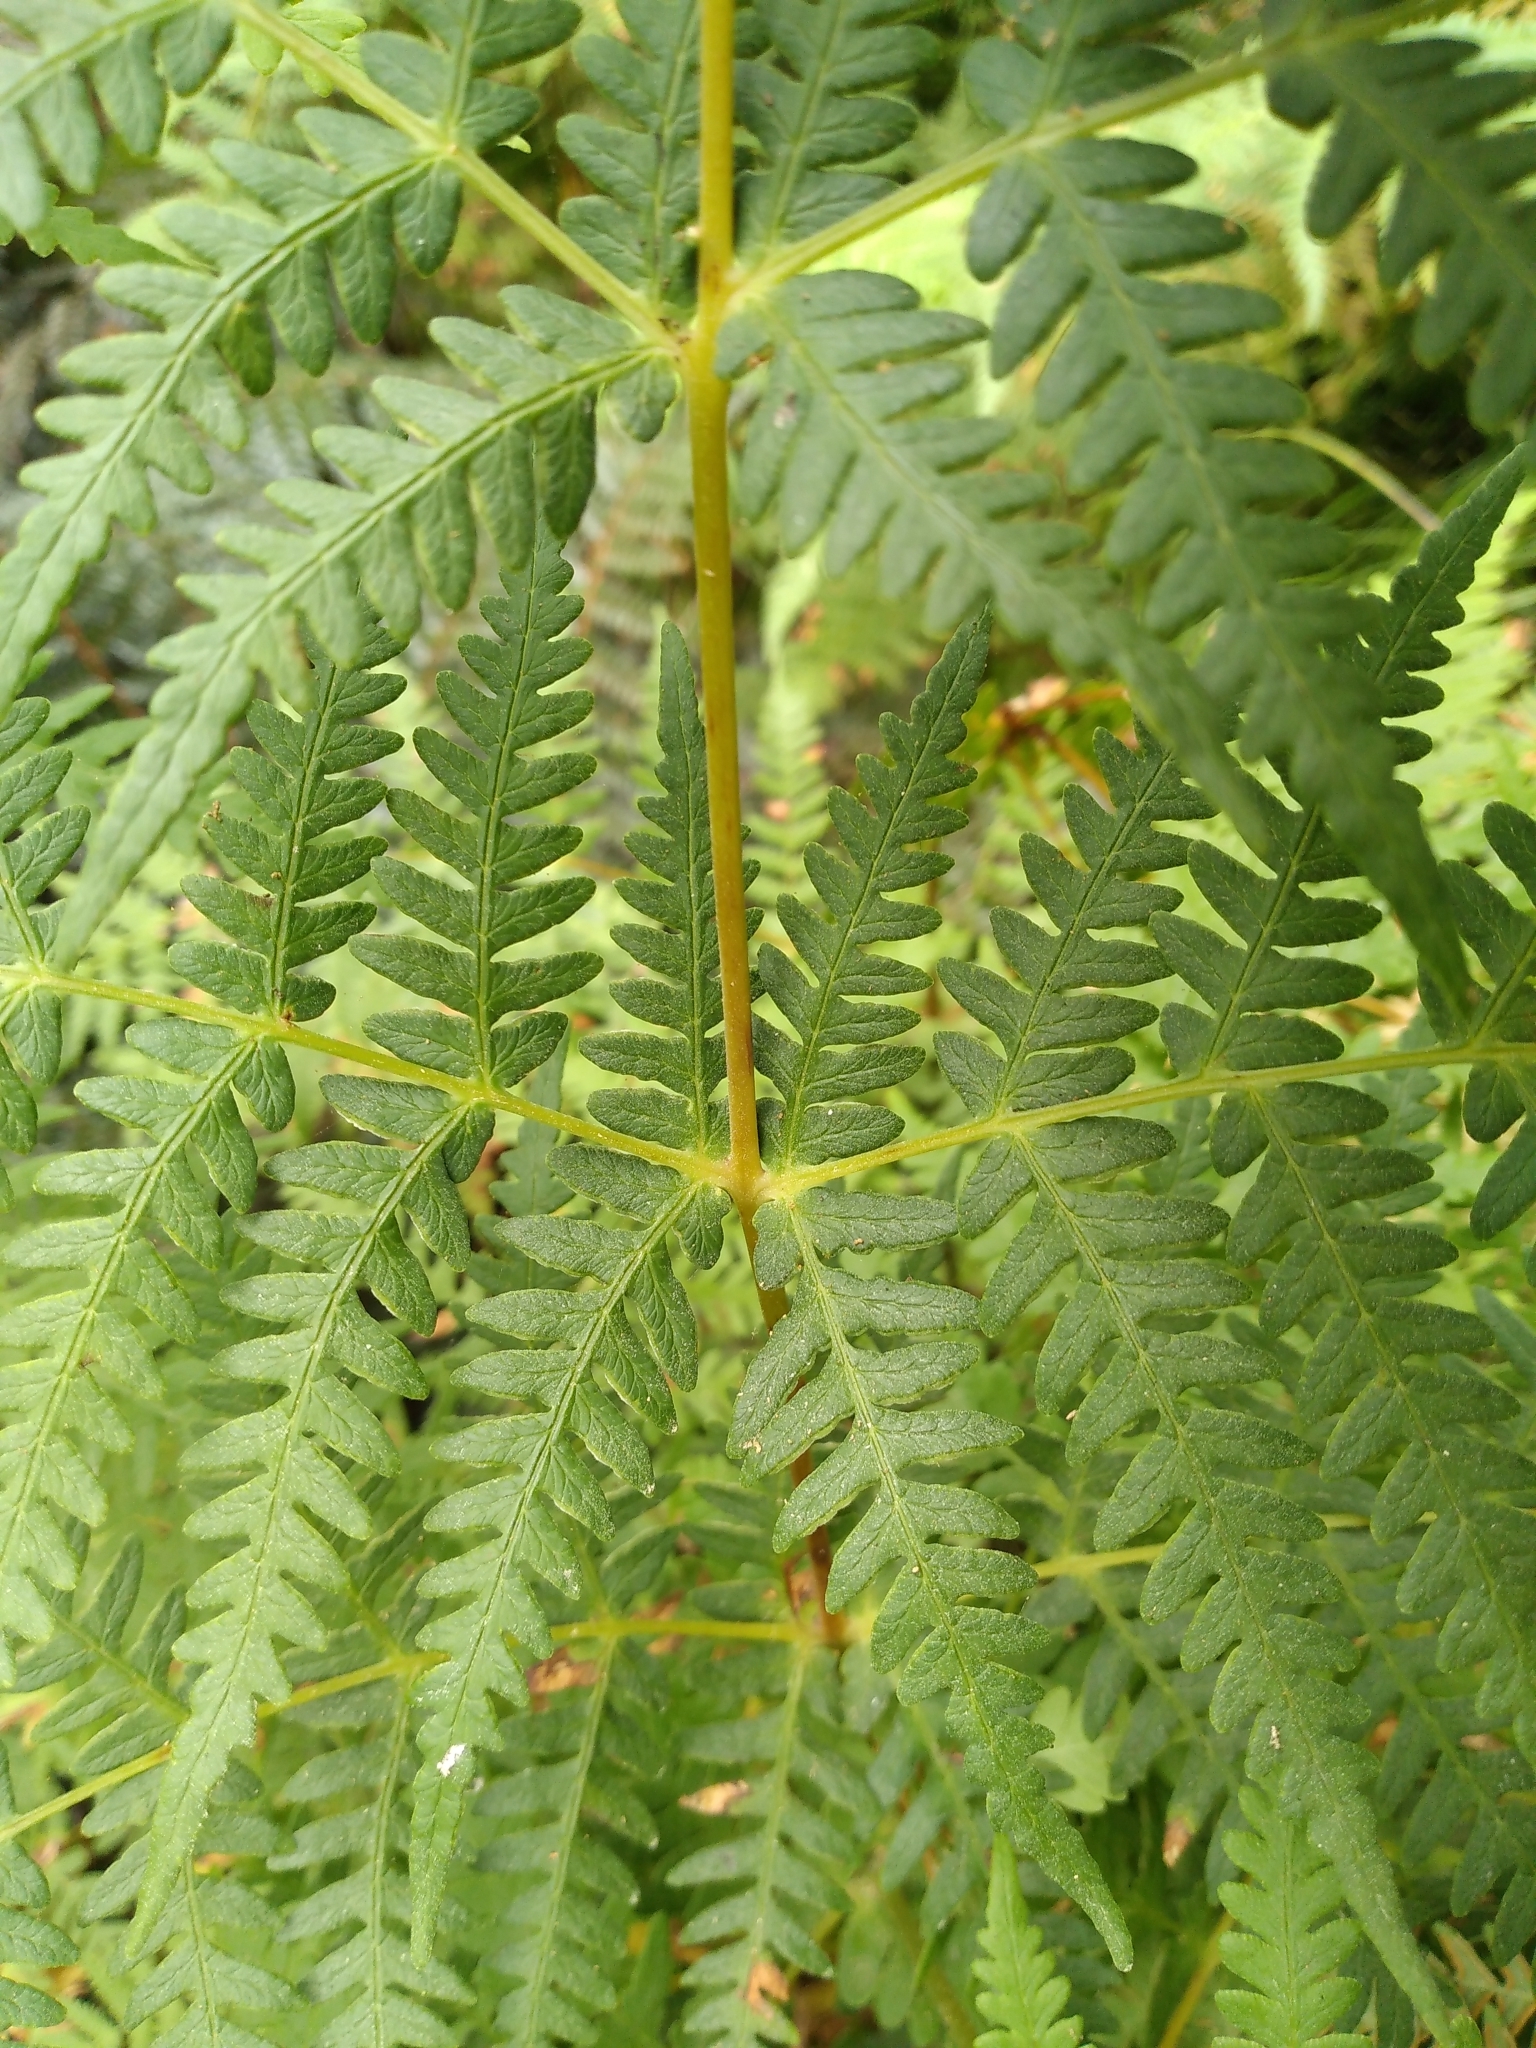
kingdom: Plantae
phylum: Tracheophyta
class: Polypodiopsida
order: Polypodiales
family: Dennstaedtiaceae
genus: Histiopteris
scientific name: Histiopteris incisa
